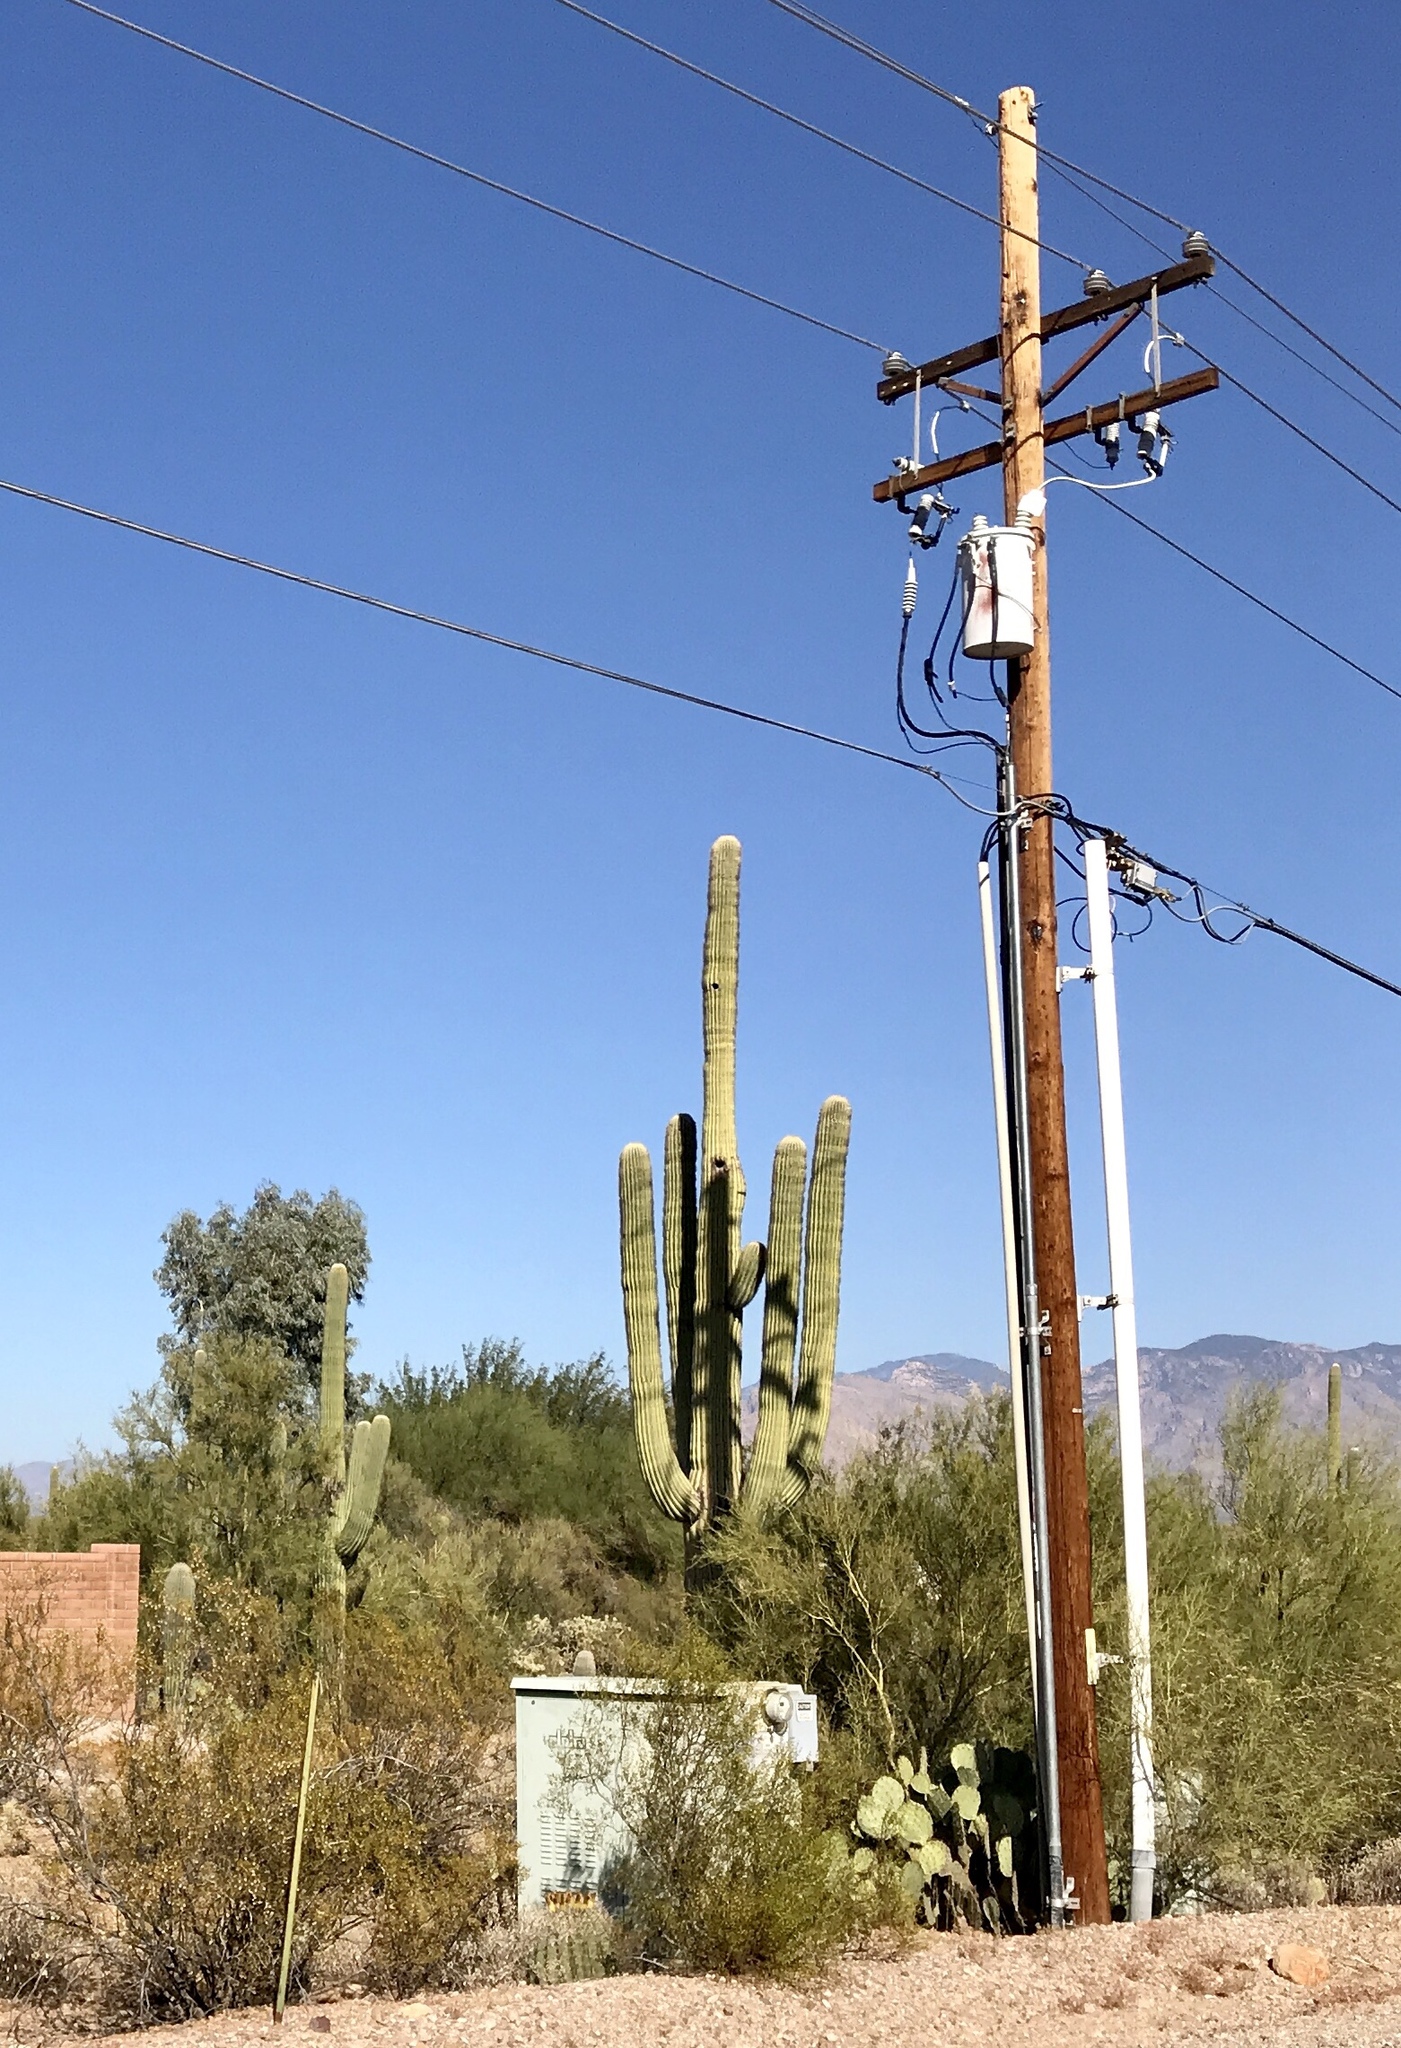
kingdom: Plantae
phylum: Tracheophyta
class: Magnoliopsida
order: Caryophyllales
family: Cactaceae
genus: Carnegiea
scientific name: Carnegiea gigantea
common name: Saguaro
